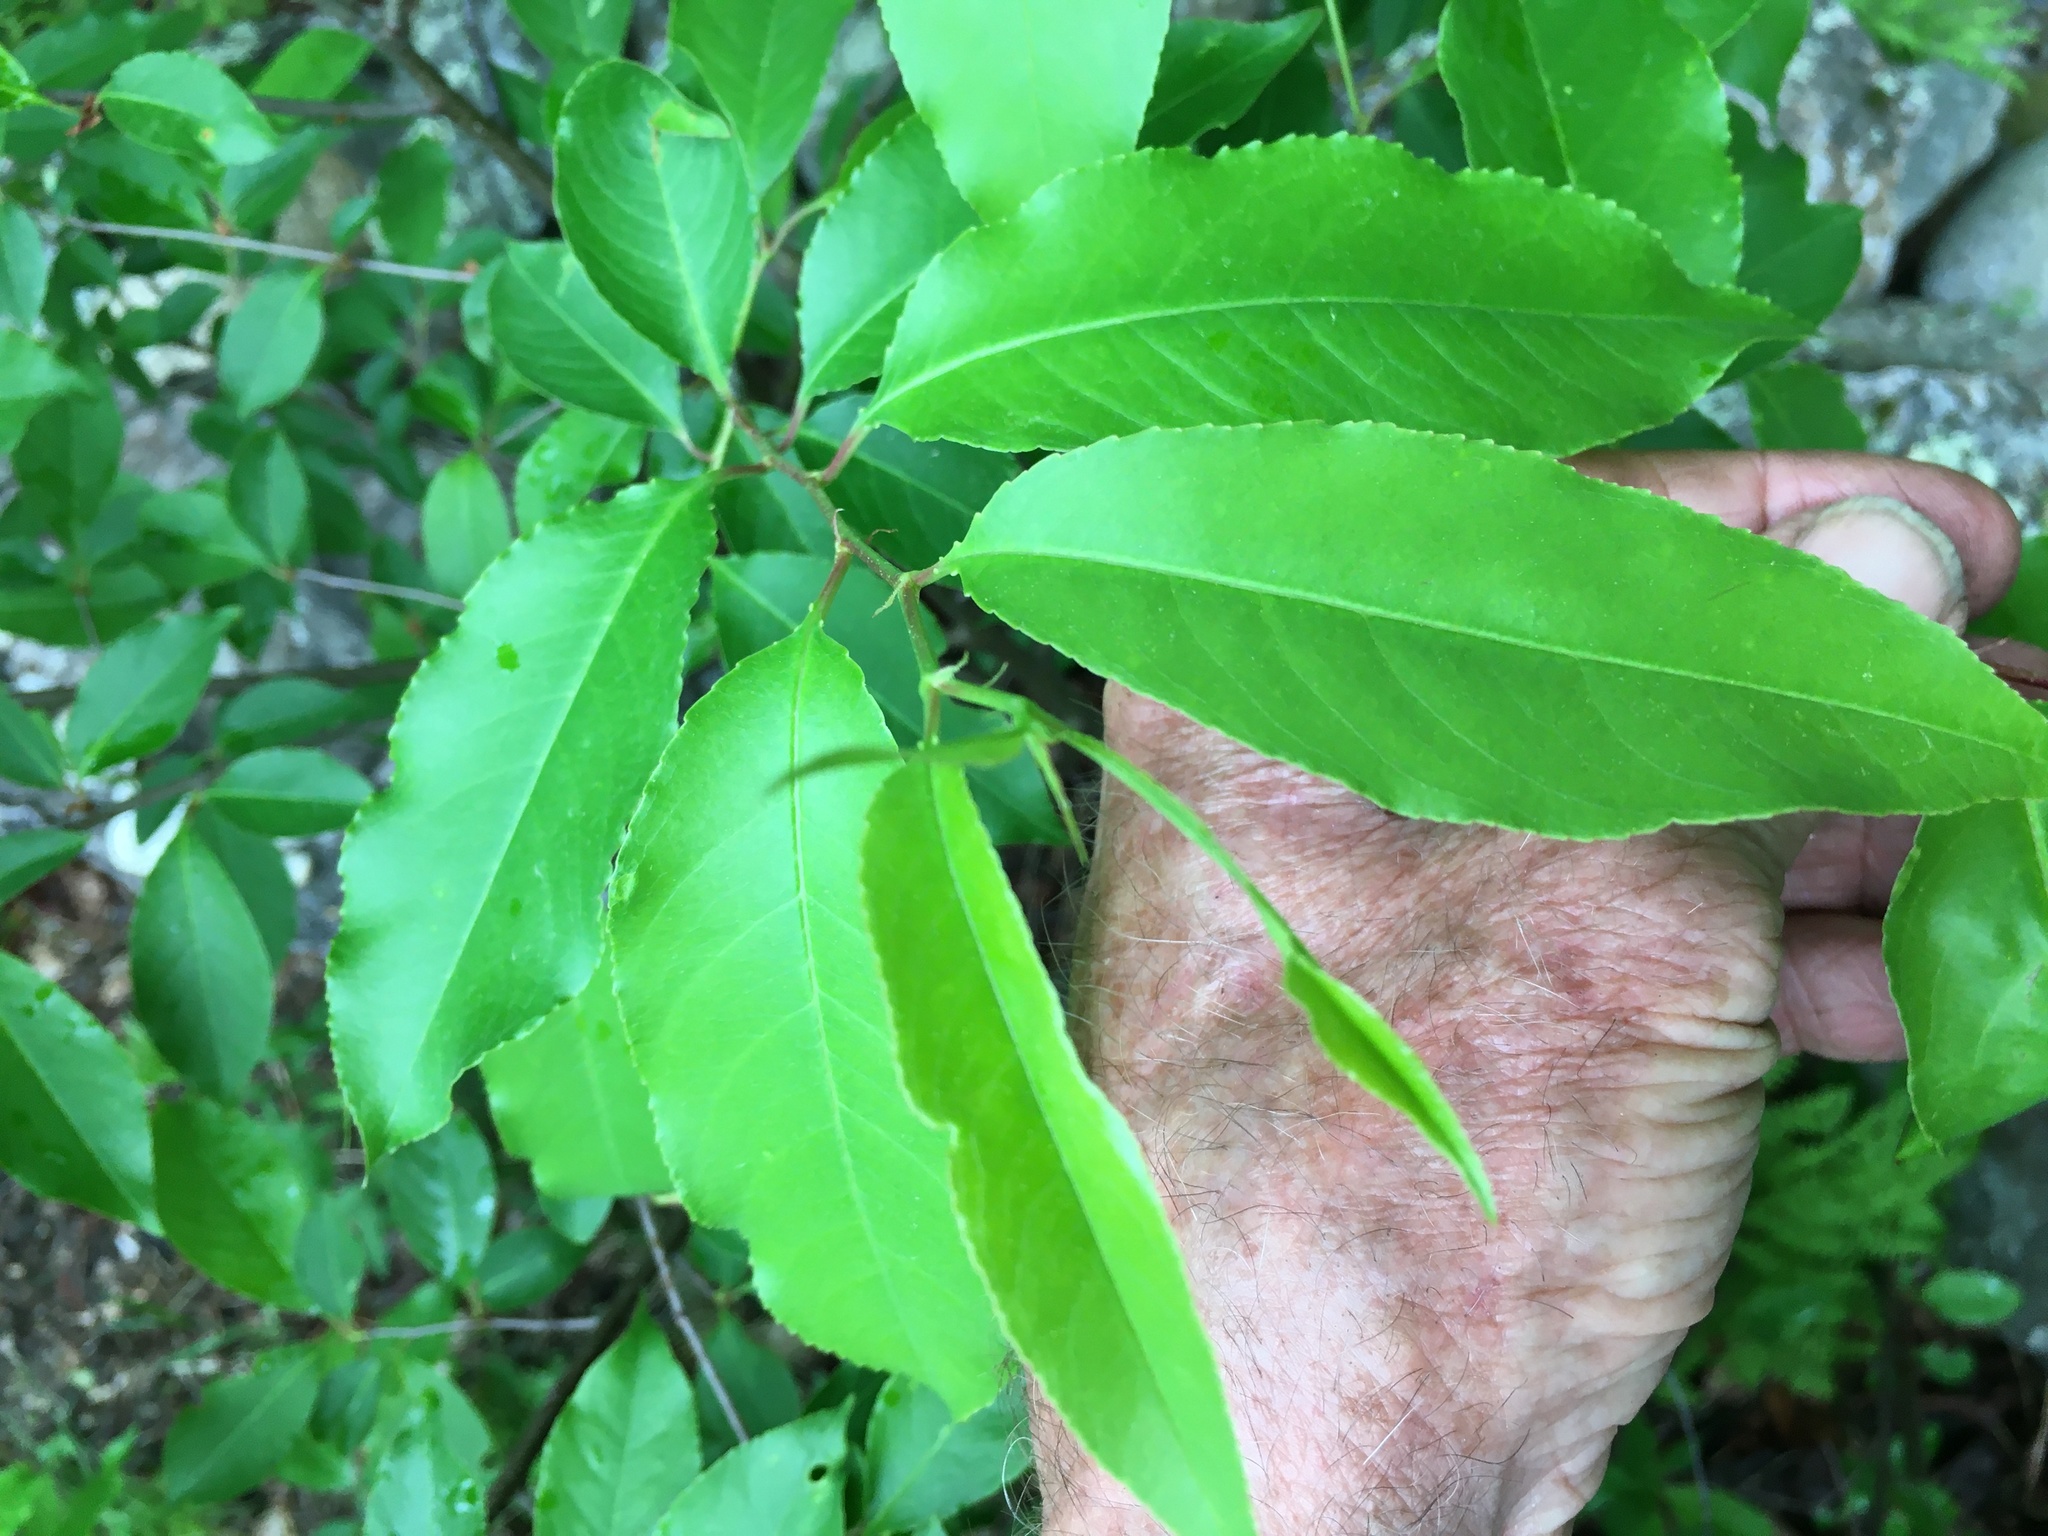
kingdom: Plantae
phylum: Tracheophyta
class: Magnoliopsida
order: Rosales
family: Rosaceae
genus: Prunus
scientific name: Prunus serotina
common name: Black cherry
